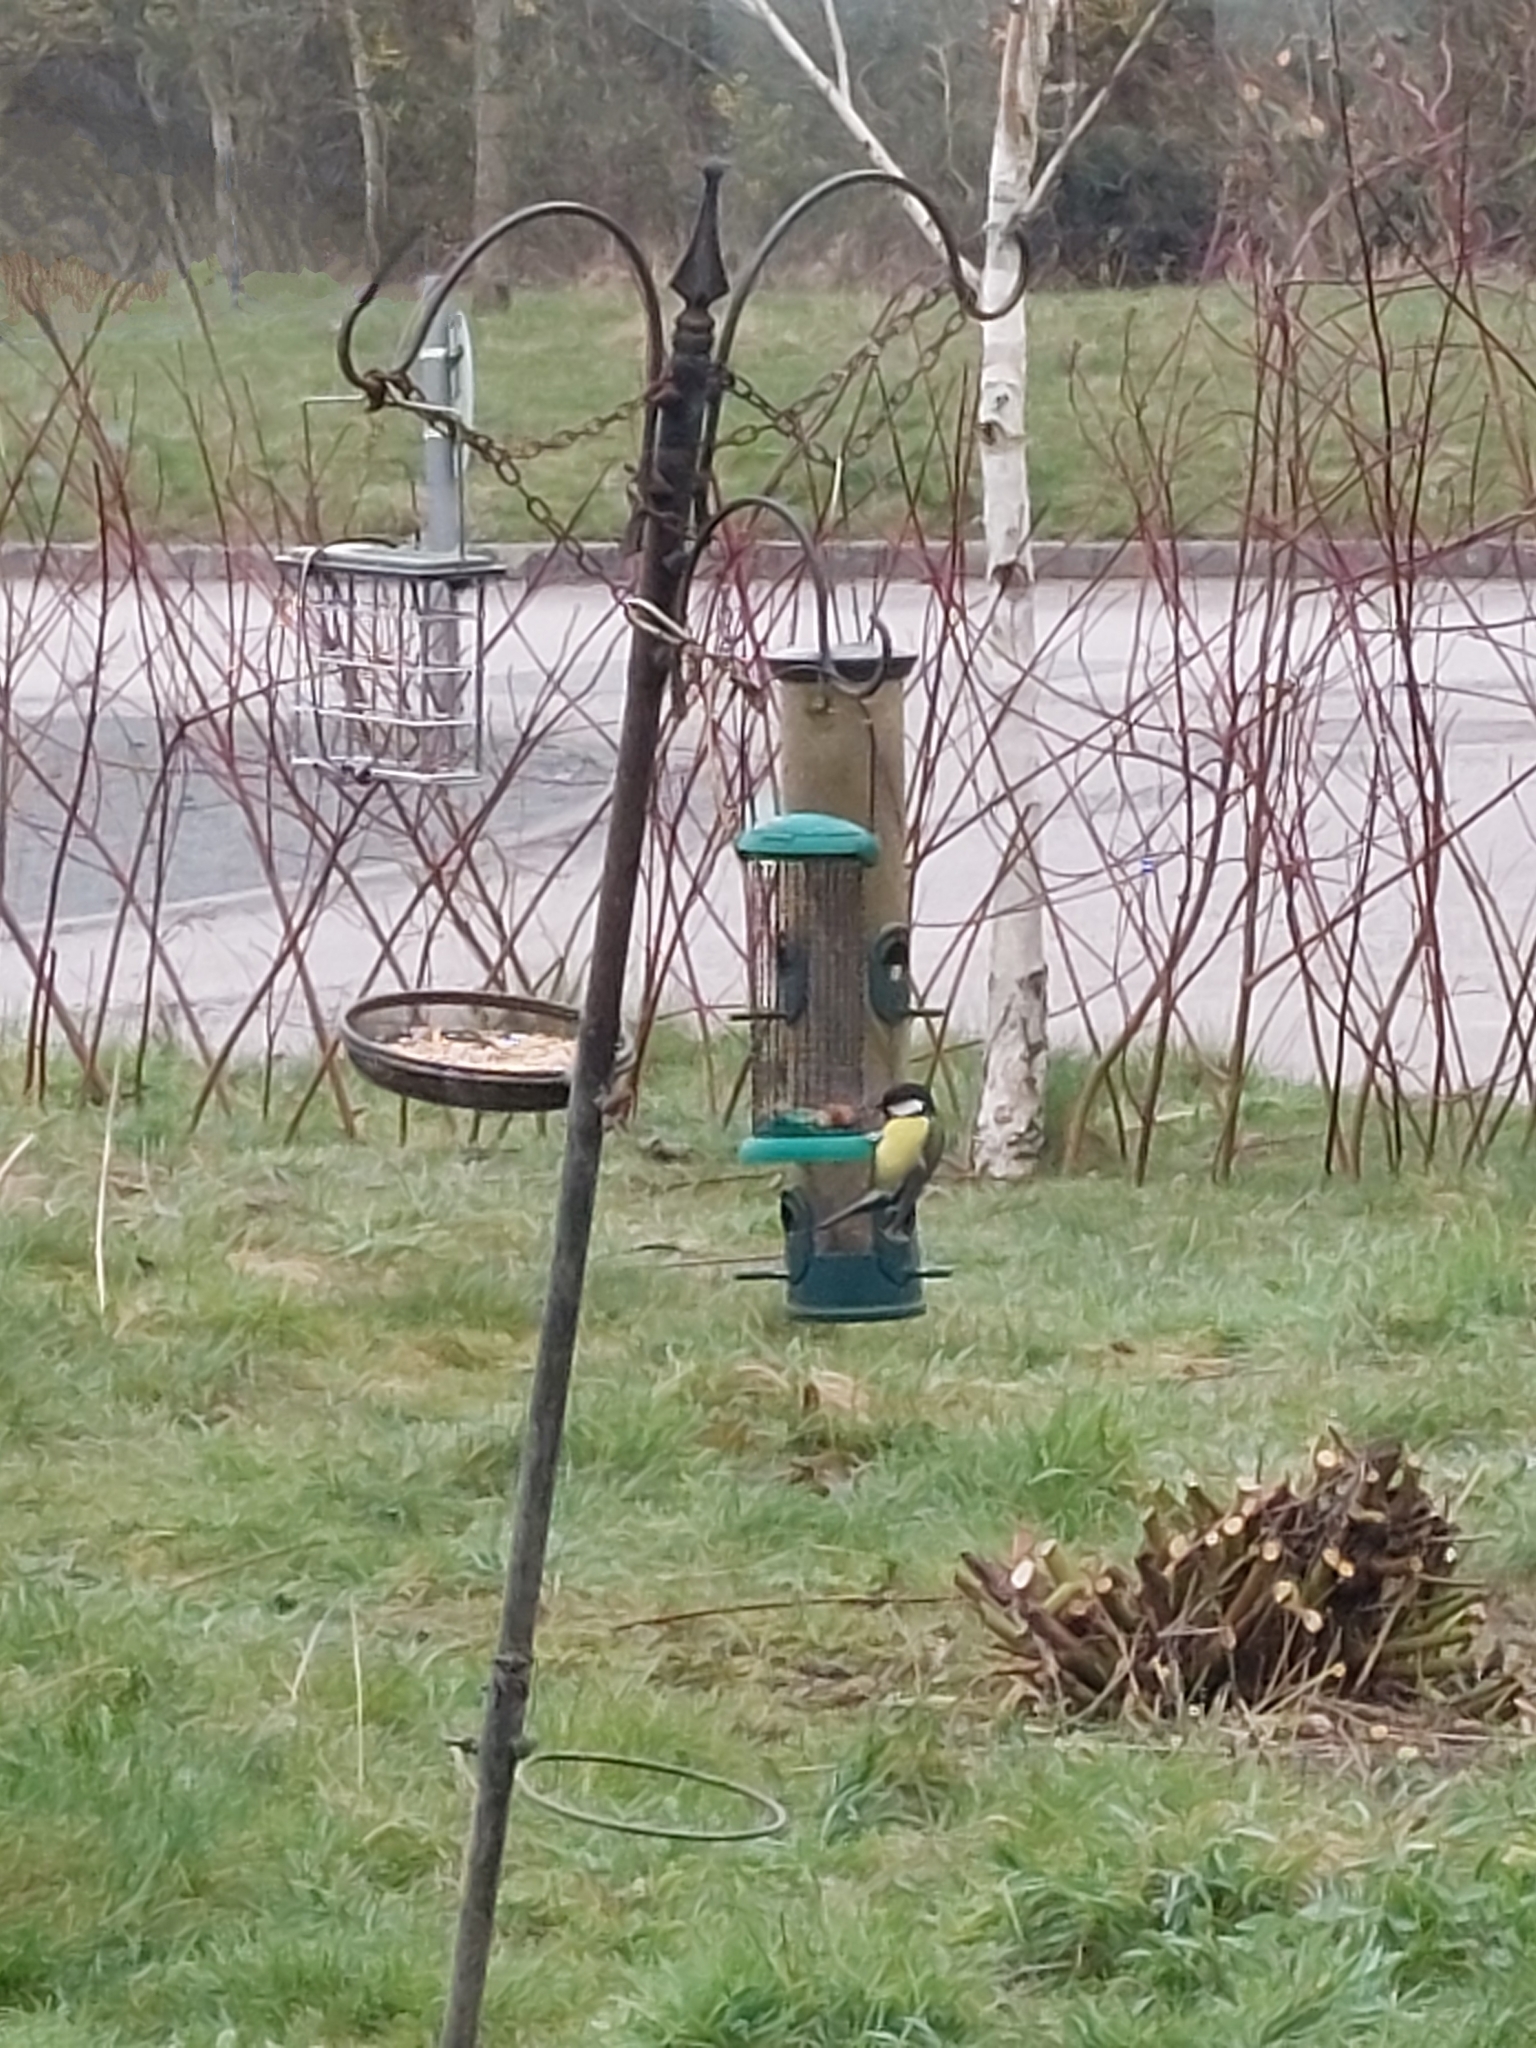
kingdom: Animalia
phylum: Chordata
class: Aves
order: Passeriformes
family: Paridae
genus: Parus
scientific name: Parus major
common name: Great tit
